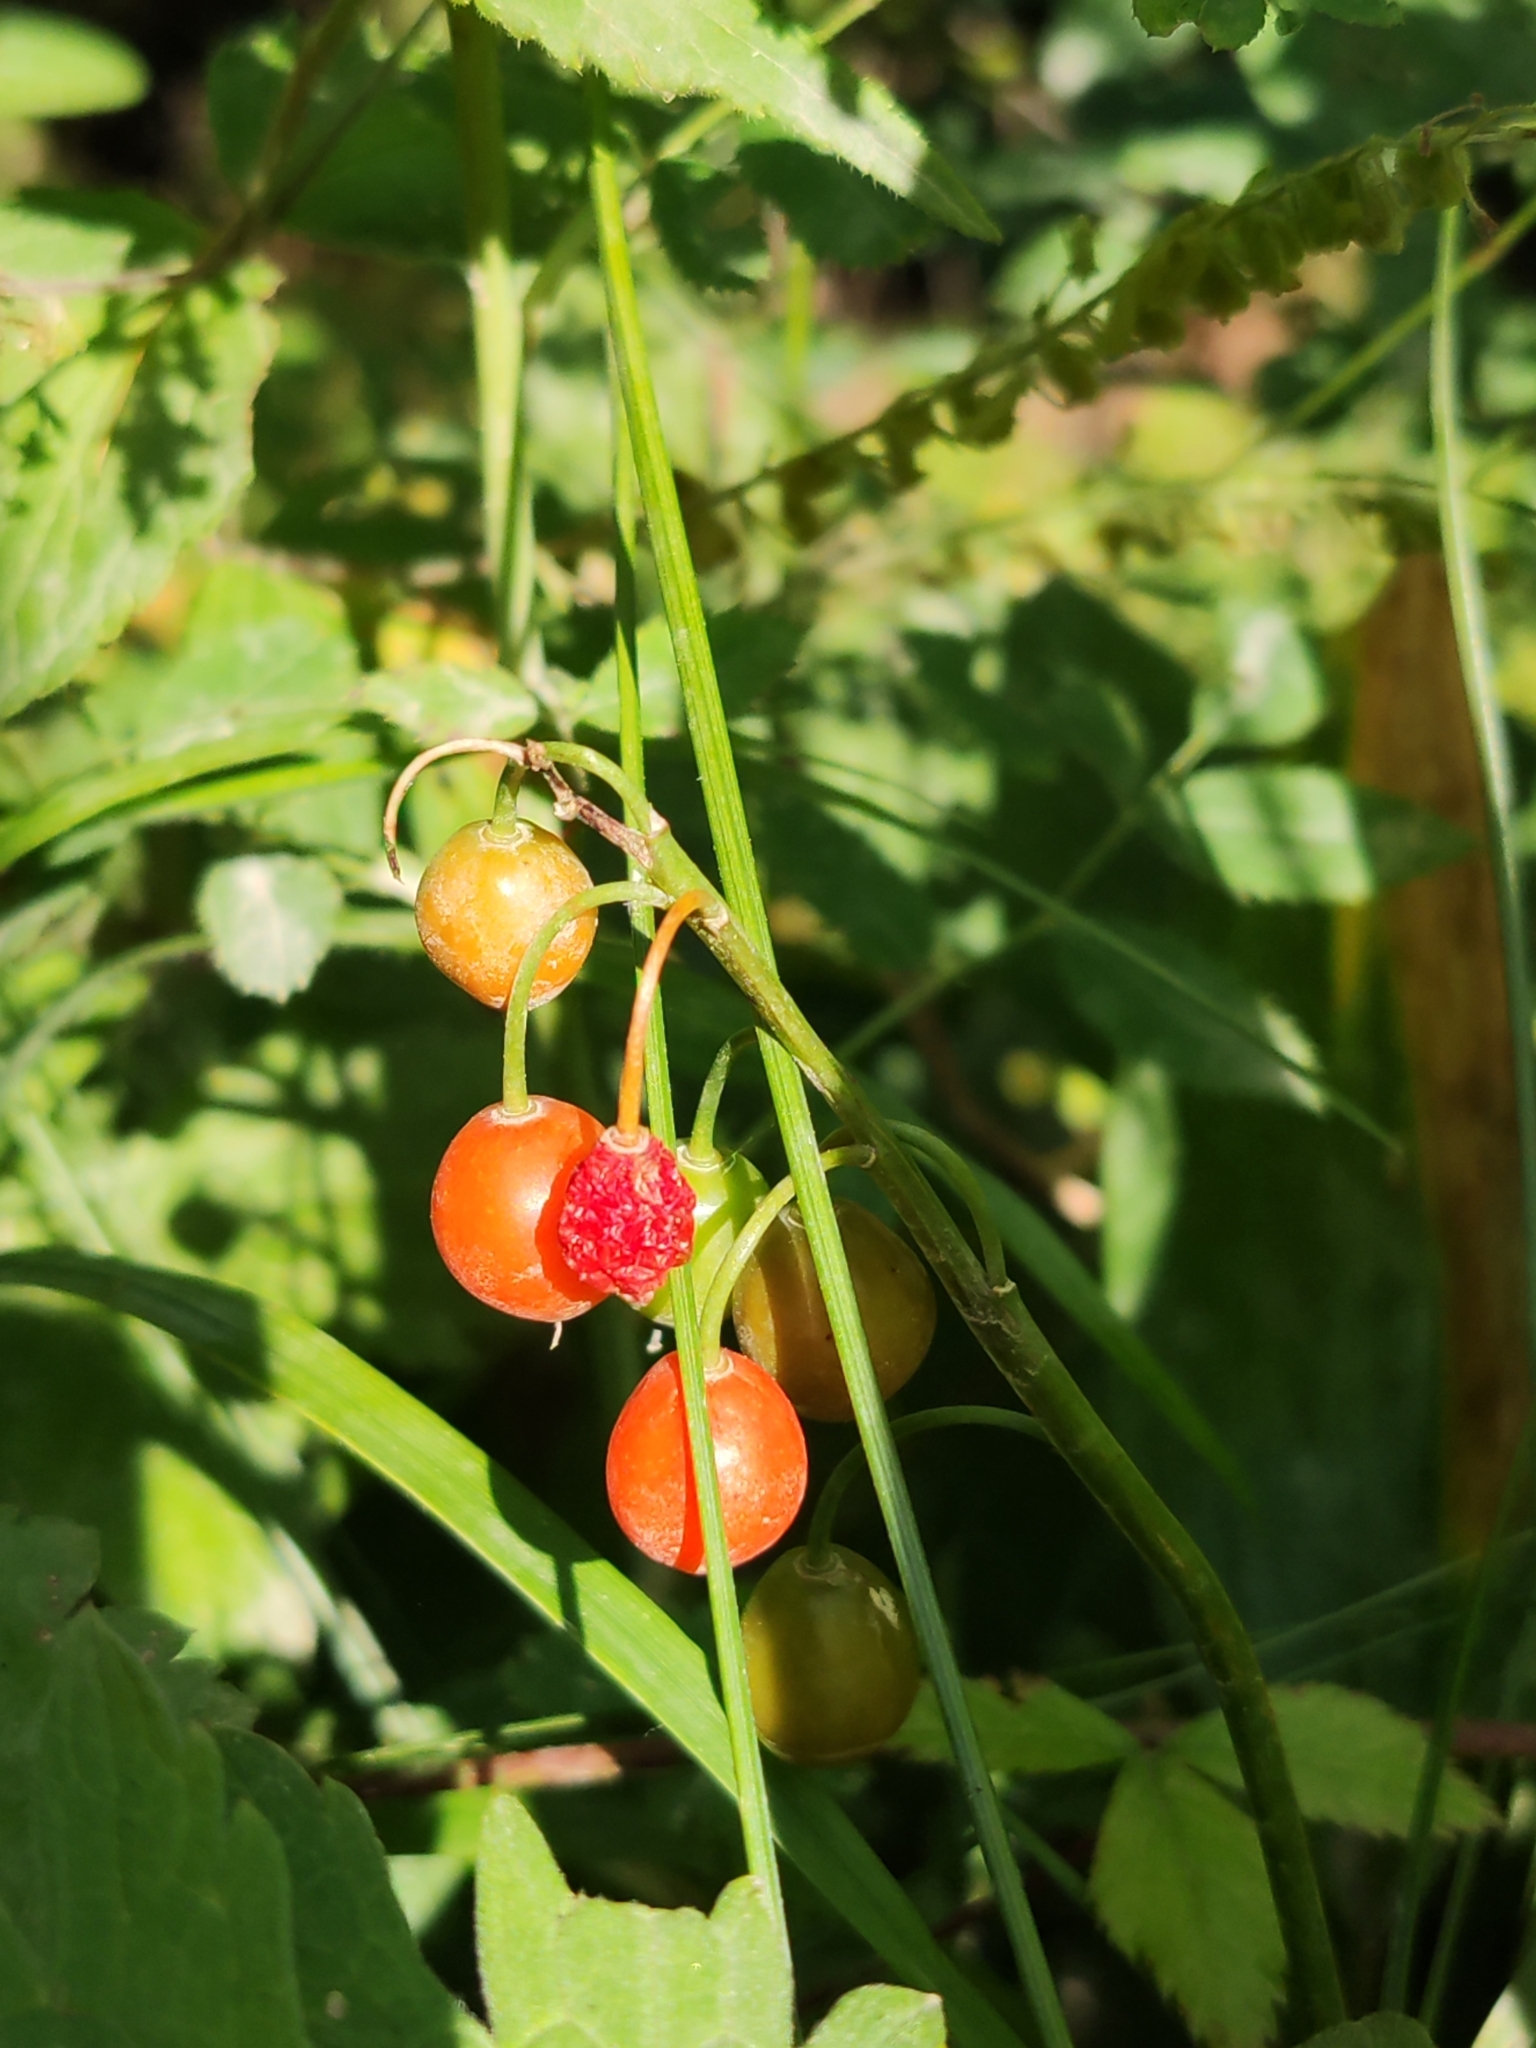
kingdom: Plantae
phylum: Tracheophyta
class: Liliopsida
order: Asparagales
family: Asparagaceae
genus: Convallaria
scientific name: Convallaria majalis
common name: Lily-of-the-valley
